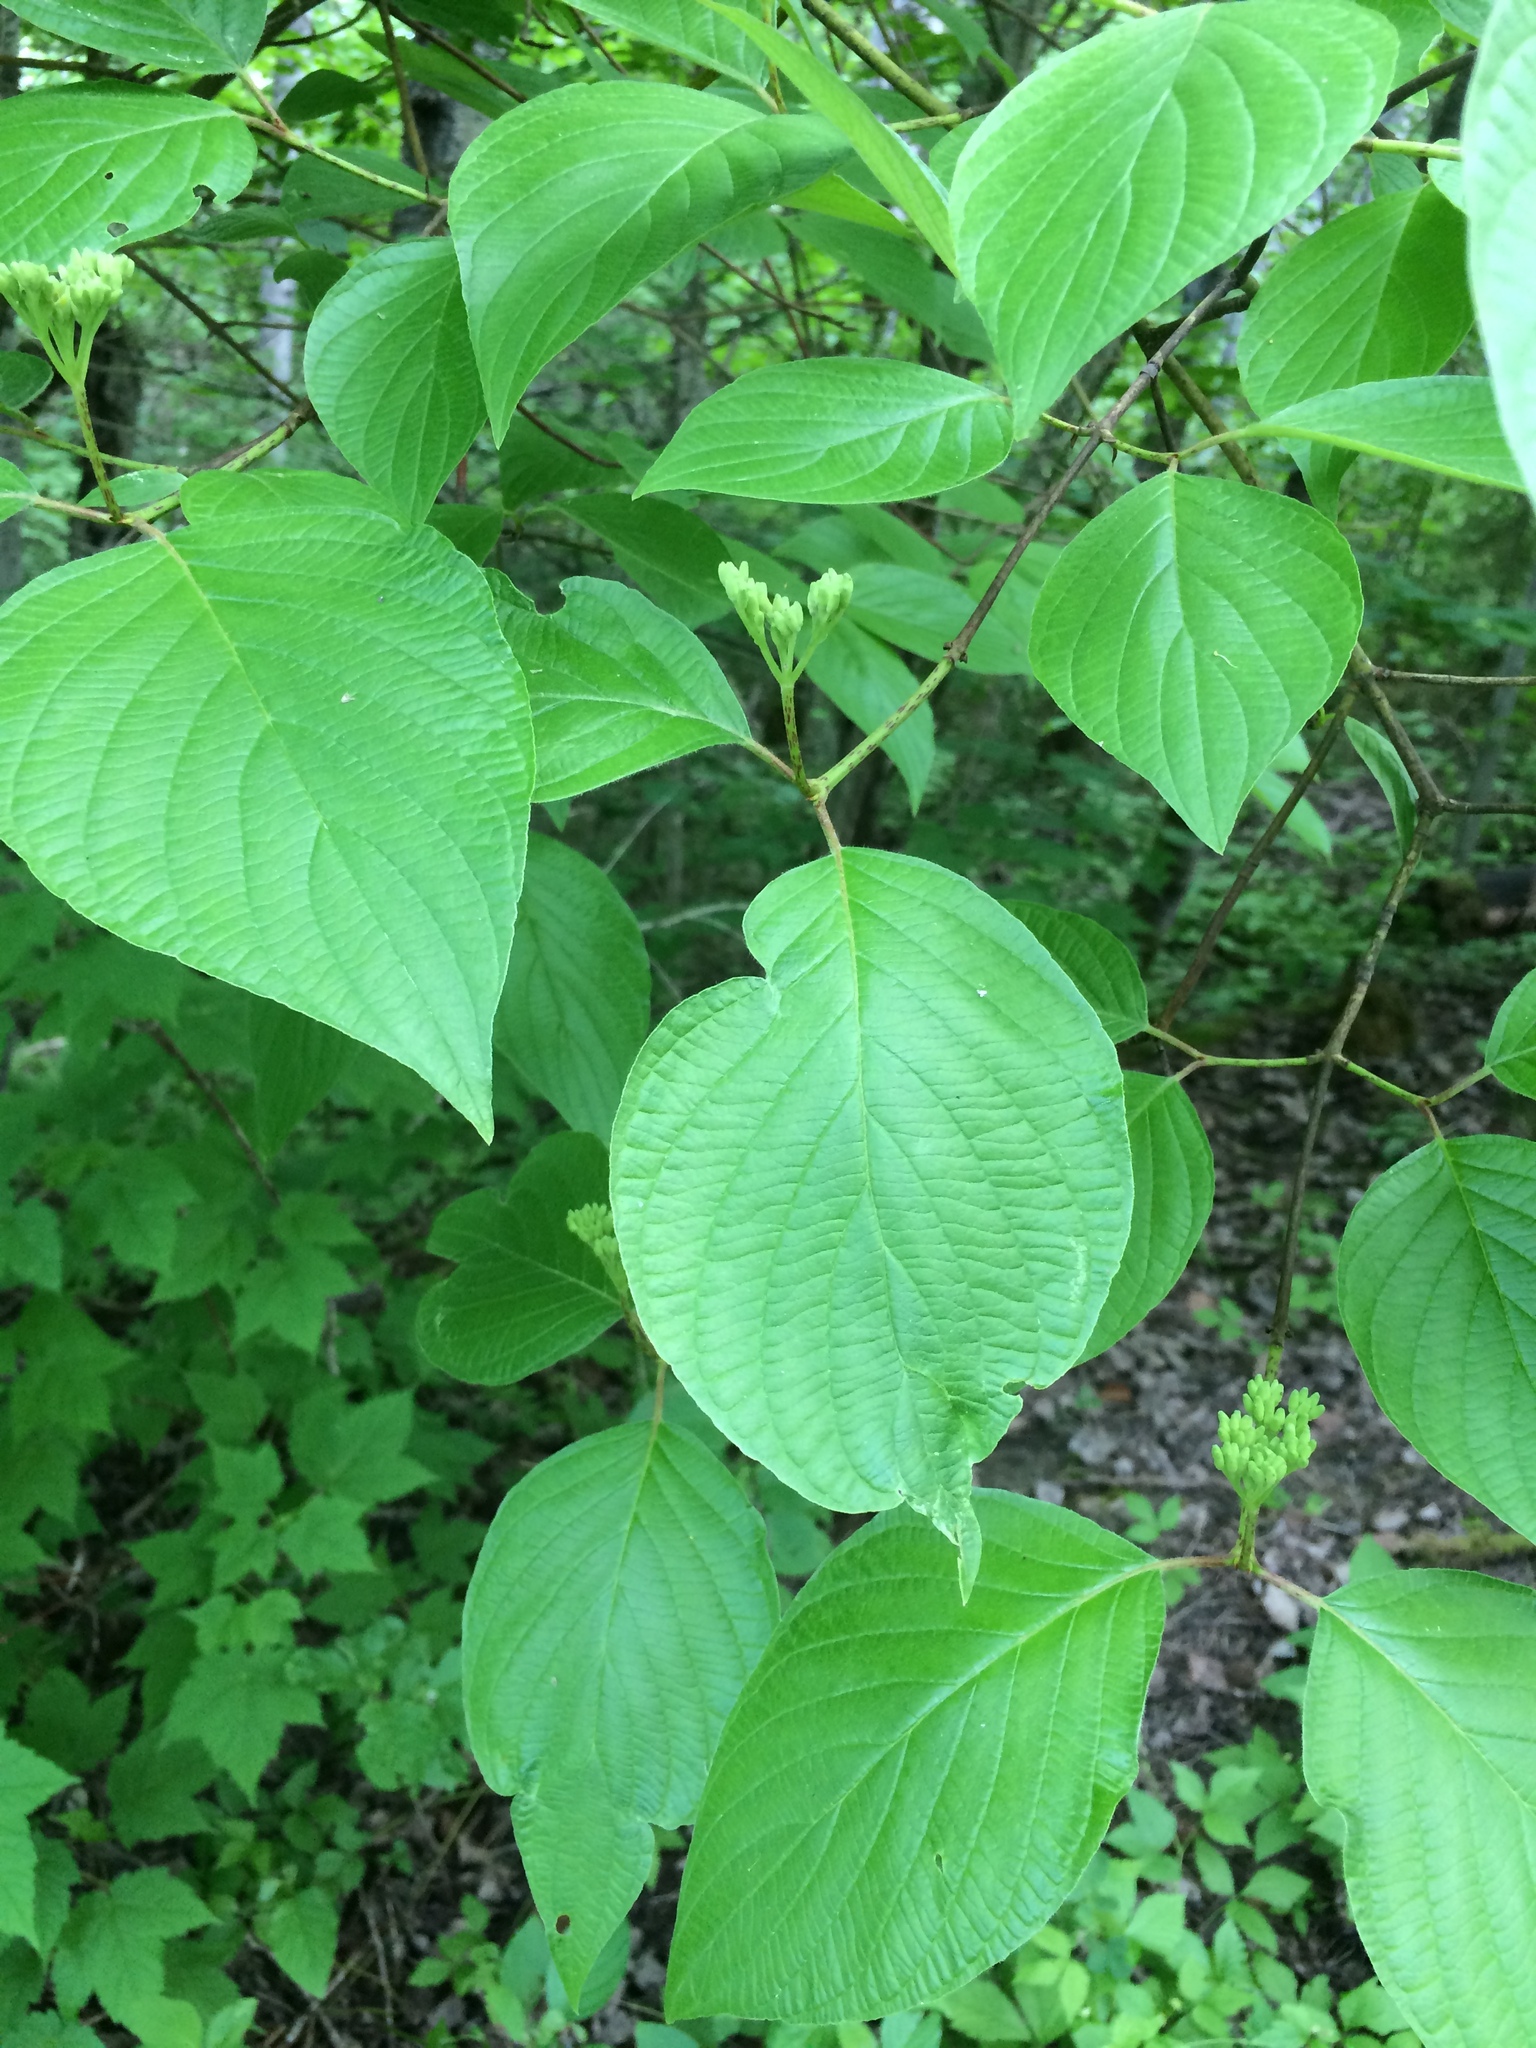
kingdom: Plantae
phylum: Tracheophyta
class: Magnoliopsida
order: Cornales
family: Cornaceae
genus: Cornus
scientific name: Cornus rugosa
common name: Round-leaf dogwood
